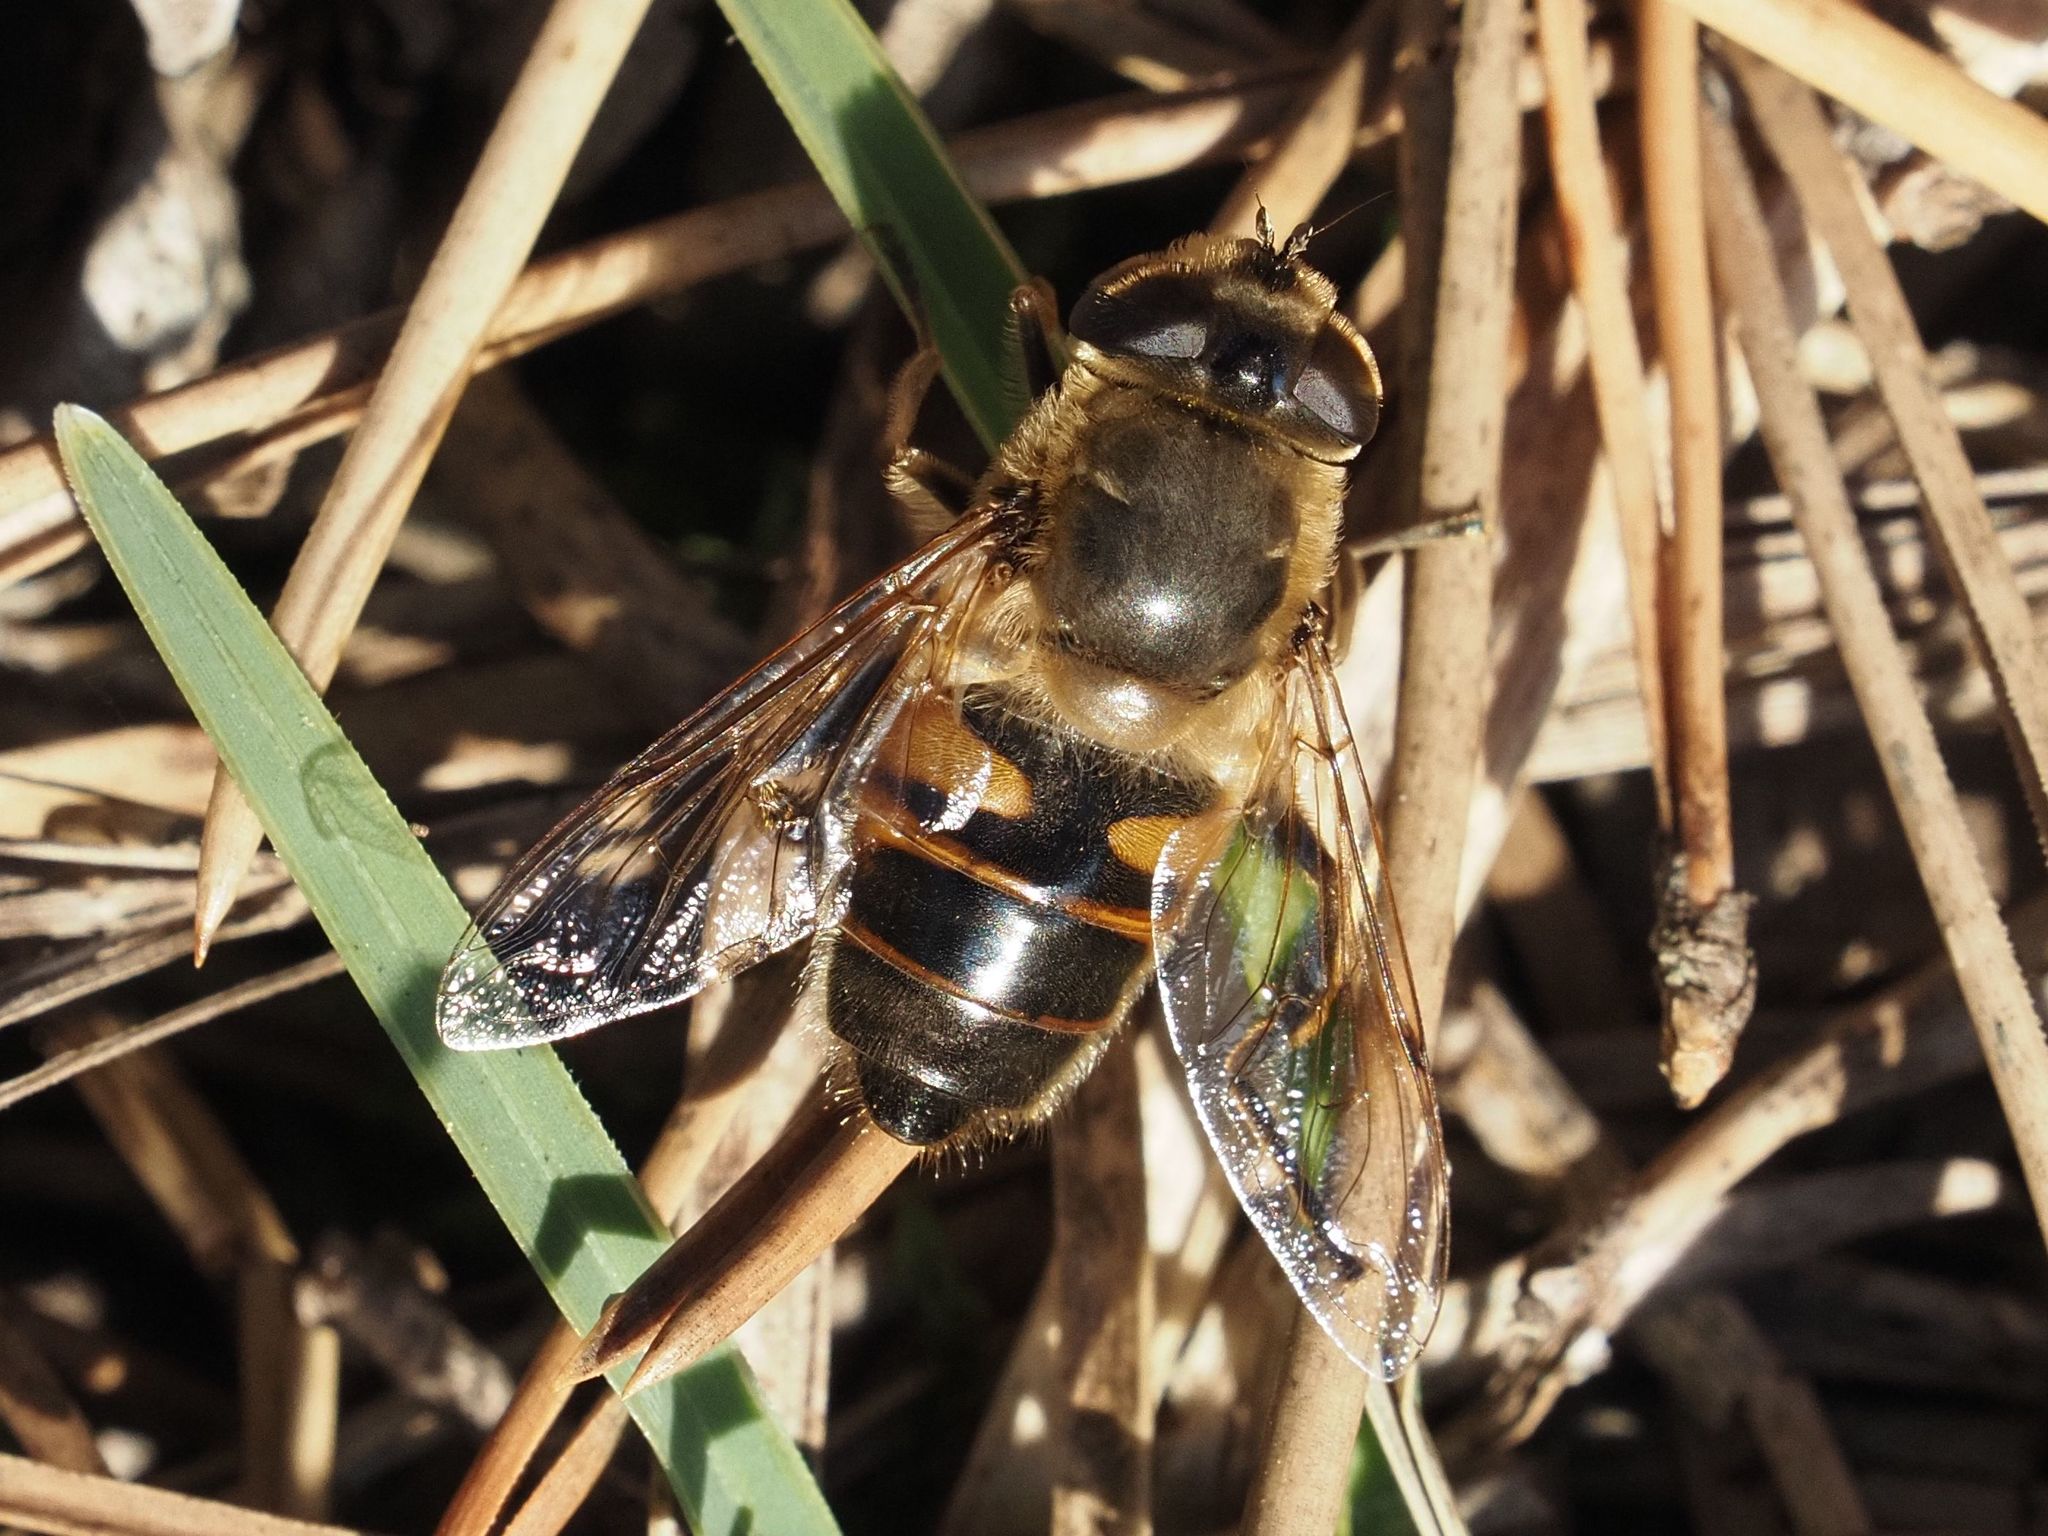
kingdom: Animalia
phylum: Arthropoda
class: Insecta
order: Diptera
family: Syrphidae
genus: Eristalis
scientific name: Eristalis tenax
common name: Drone fly
